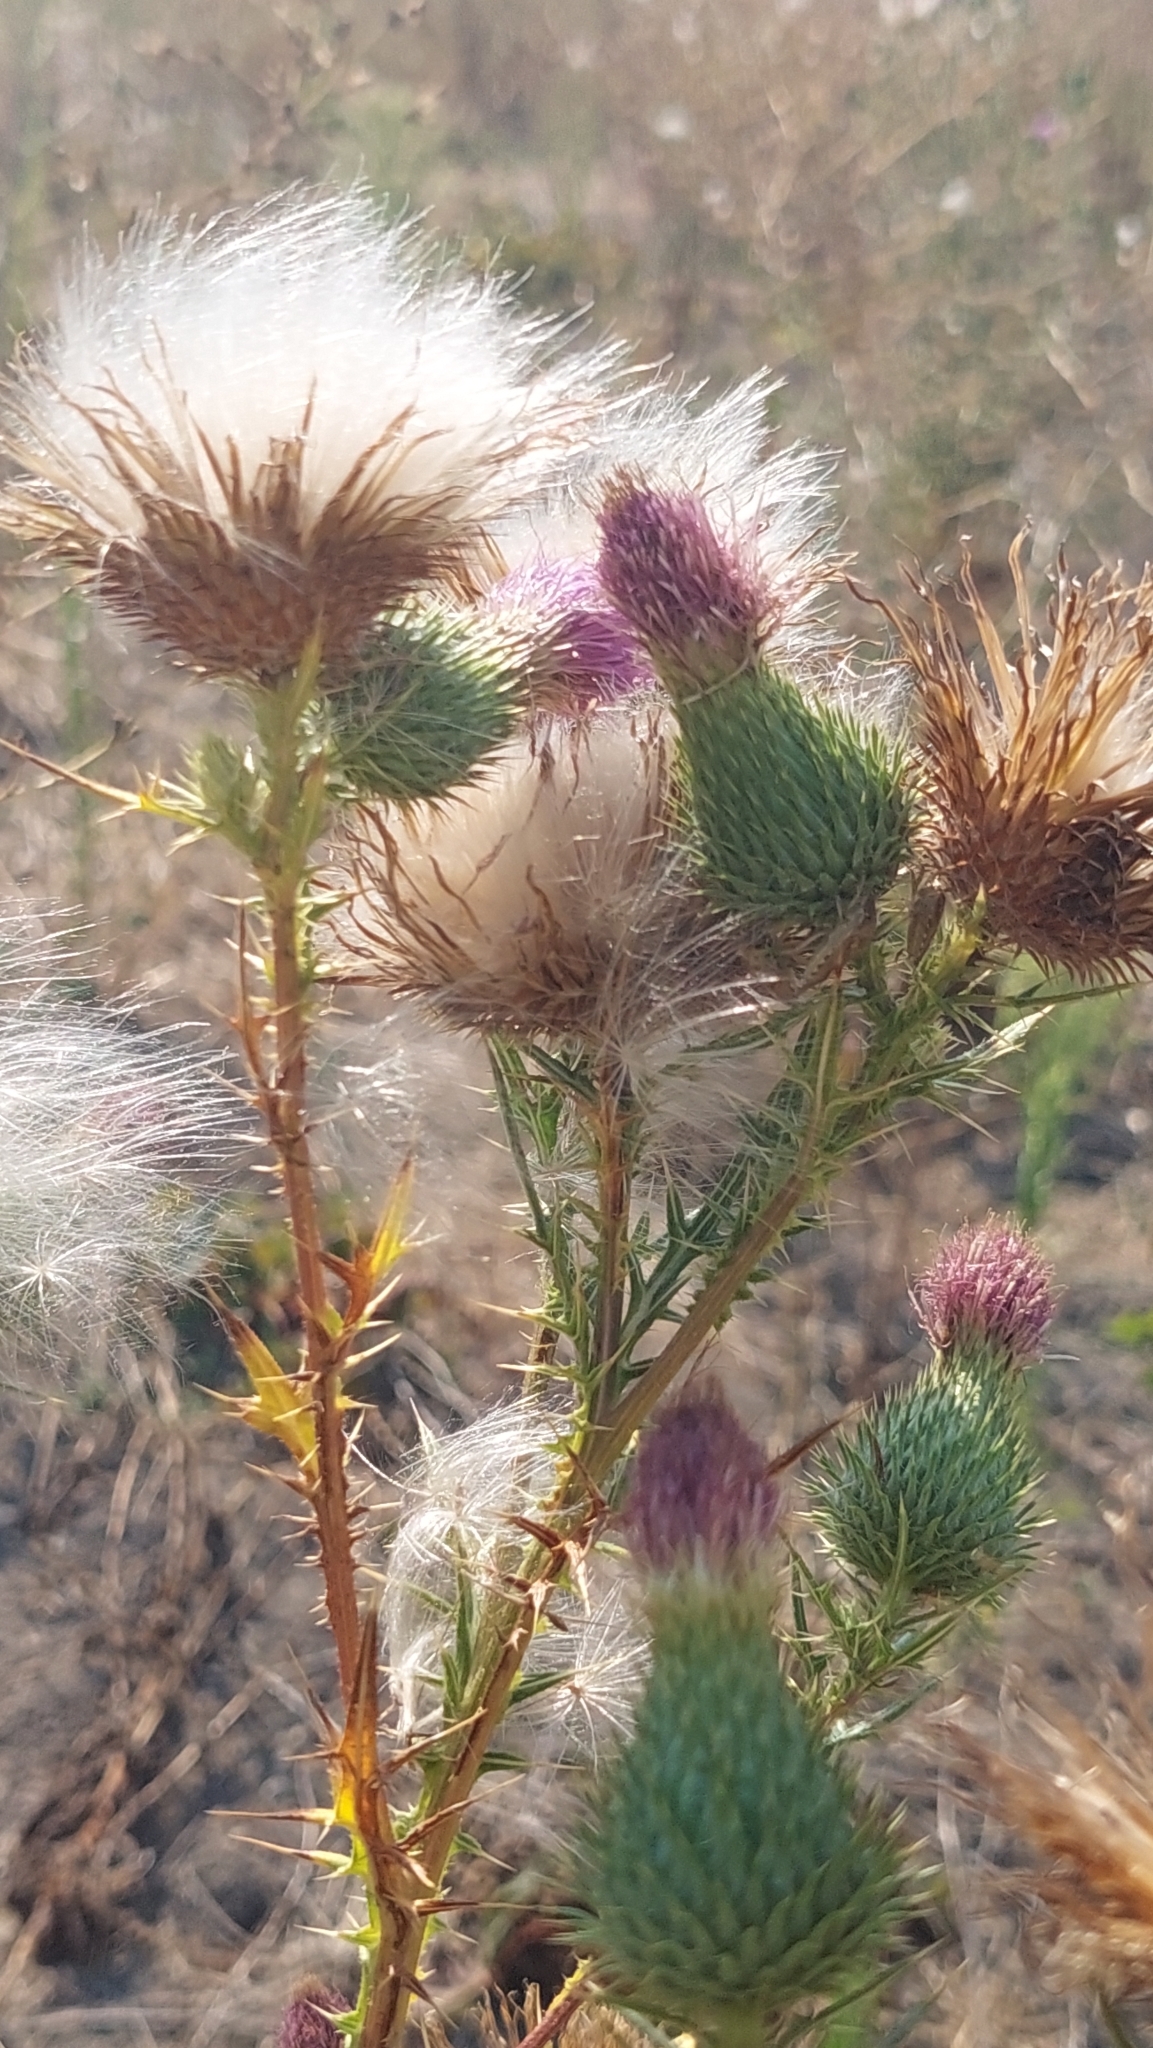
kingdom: Plantae
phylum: Tracheophyta
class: Magnoliopsida
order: Asterales
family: Asteraceae
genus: Cirsium
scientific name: Cirsium vulgare
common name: Bull thistle
